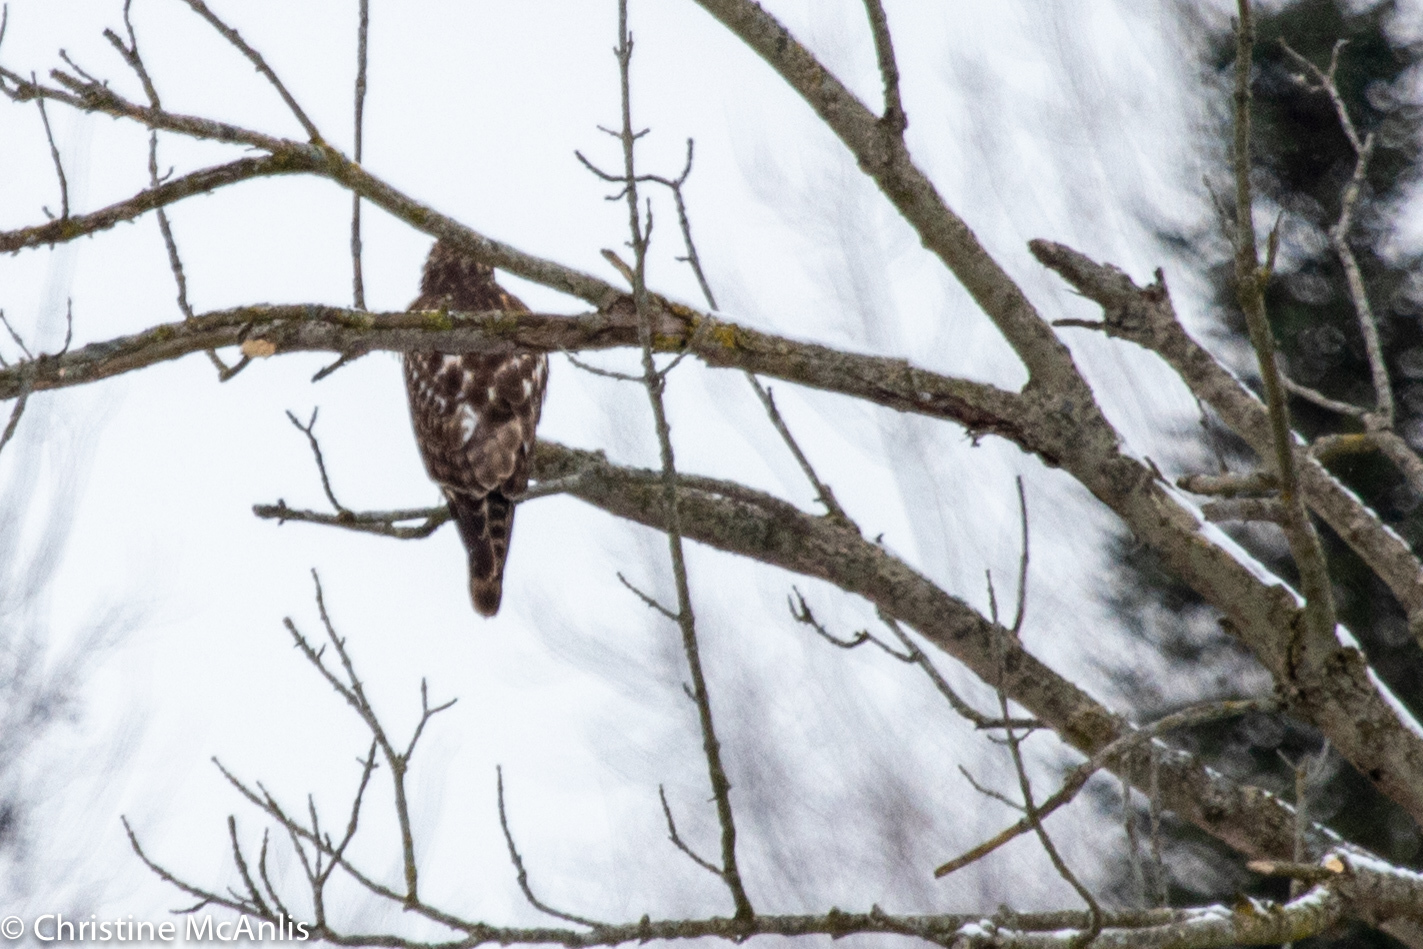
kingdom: Animalia
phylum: Chordata
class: Aves
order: Accipitriformes
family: Accipitridae
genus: Buteo
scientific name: Buteo lineatus
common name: Red-shouldered hawk
